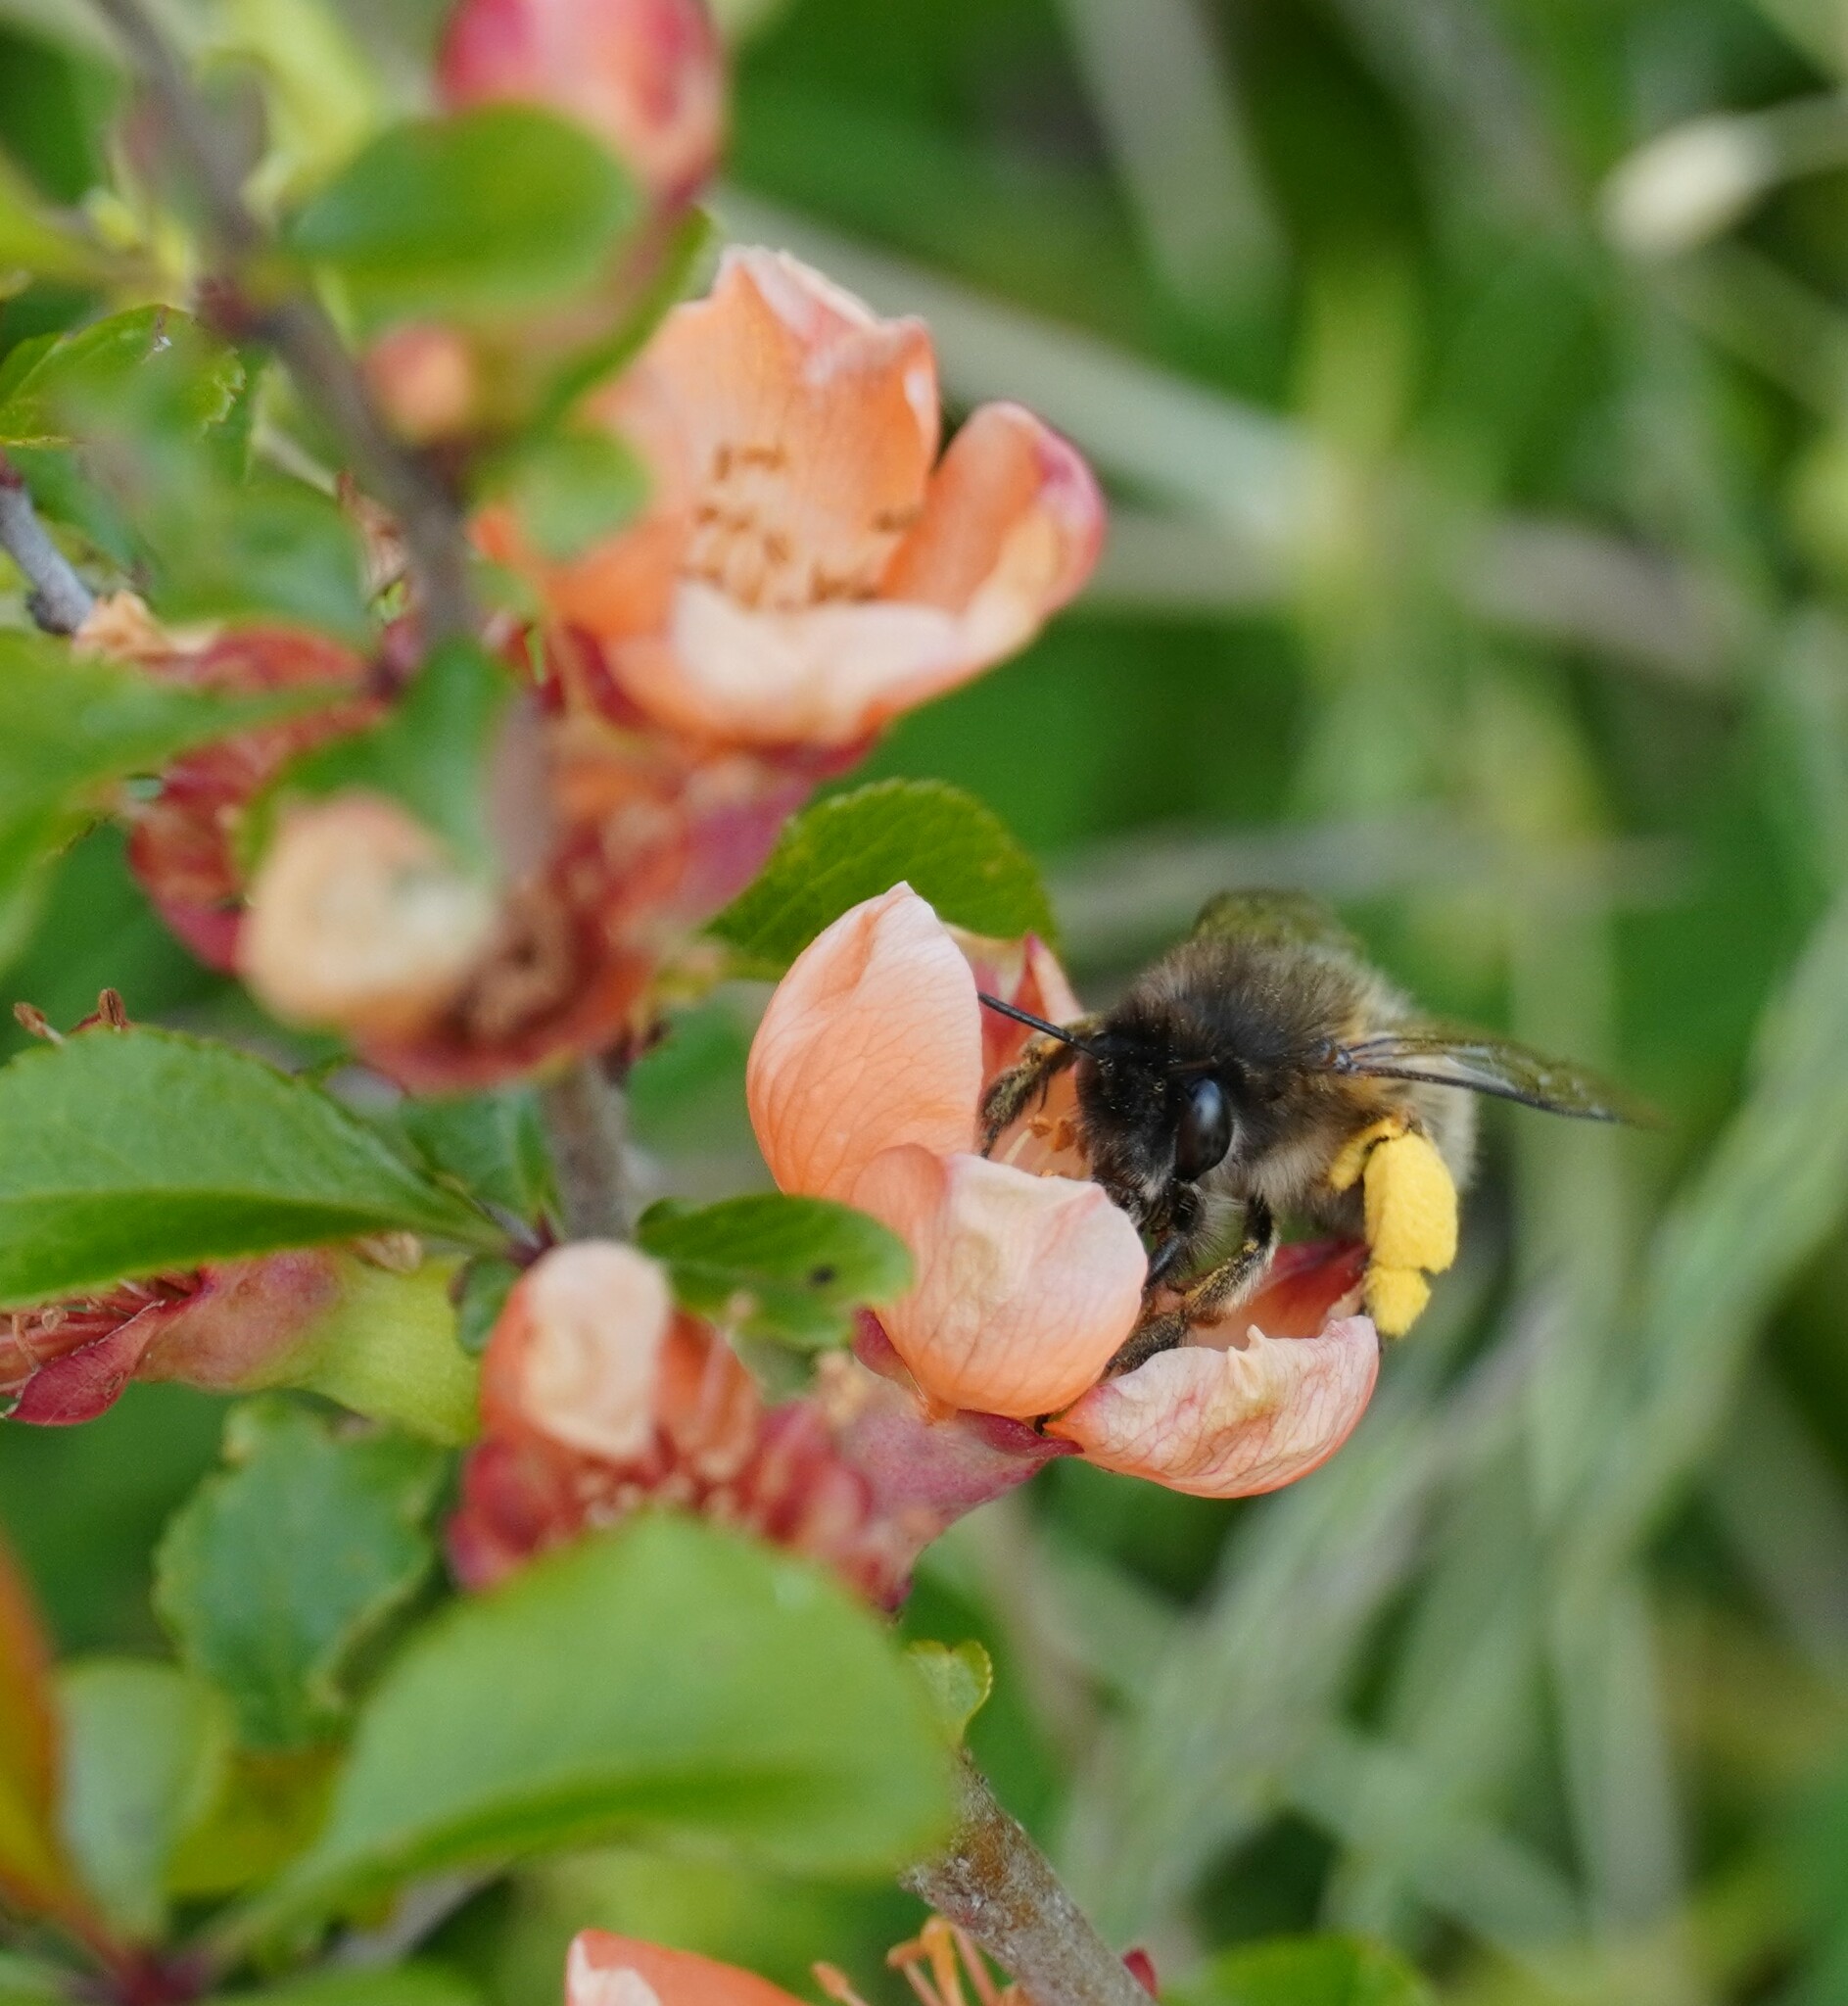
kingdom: Animalia
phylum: Arthropoda
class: Insecta
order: Hymenoptera
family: Apidae
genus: Anthophora
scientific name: Anthophora plumipes
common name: Hairy-footed flower bee
